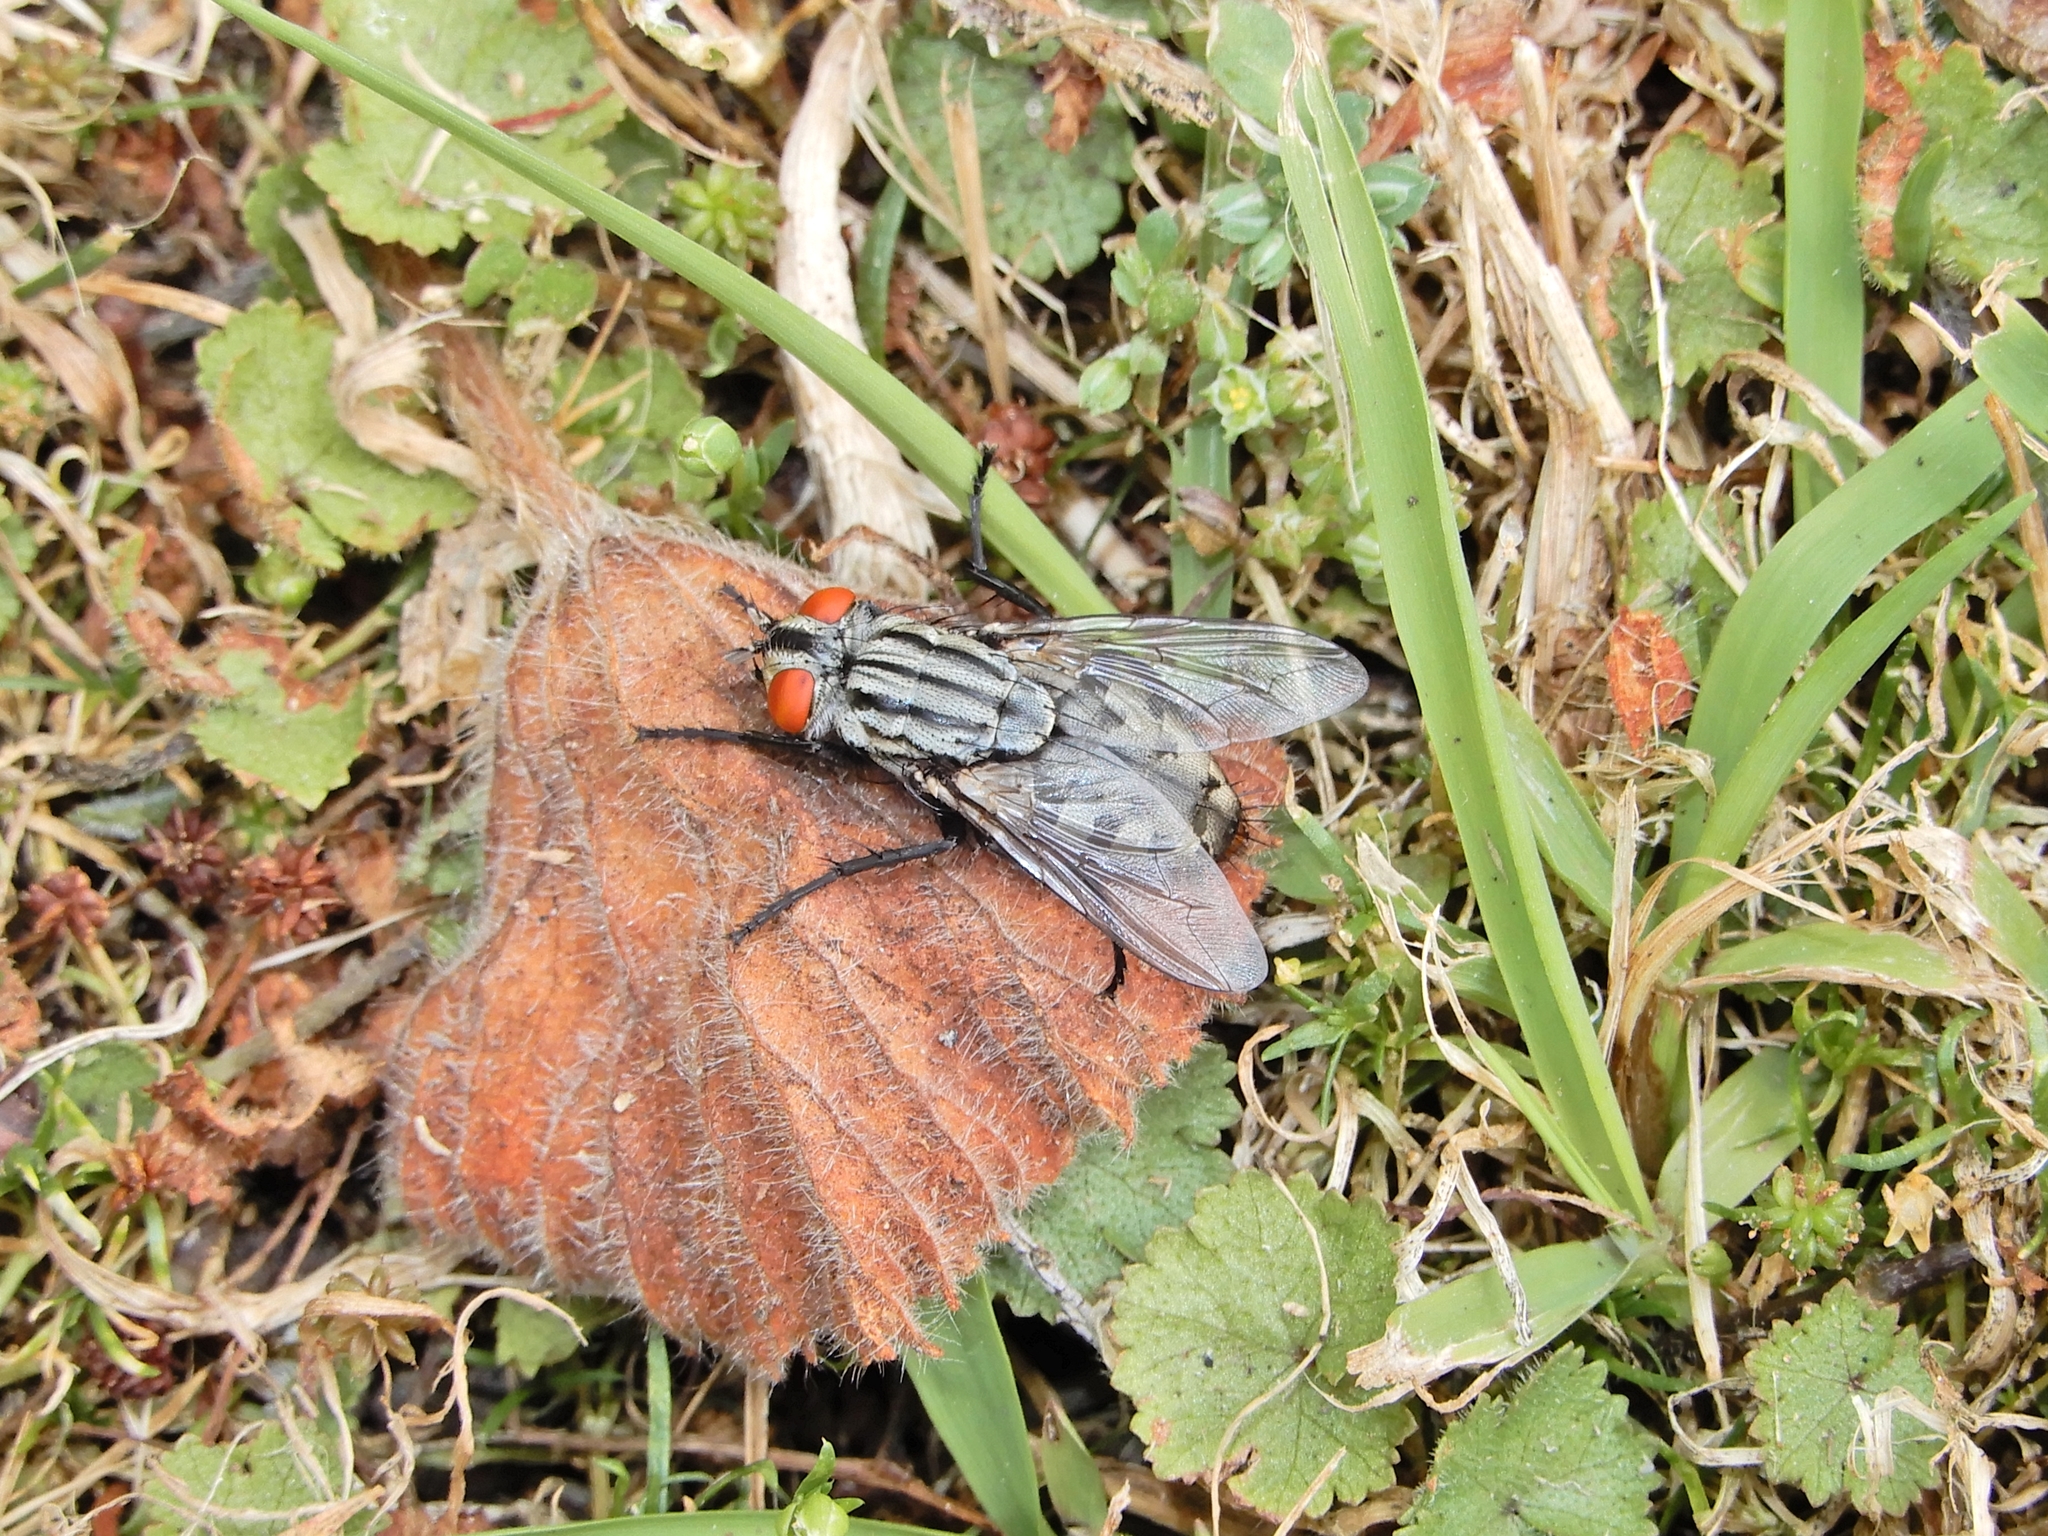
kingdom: Animalia
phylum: Arthropoda
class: Insecta
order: Diptera
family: Sarcophagidae
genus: Sarcophaga
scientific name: Sarcophaga crassipalpis
